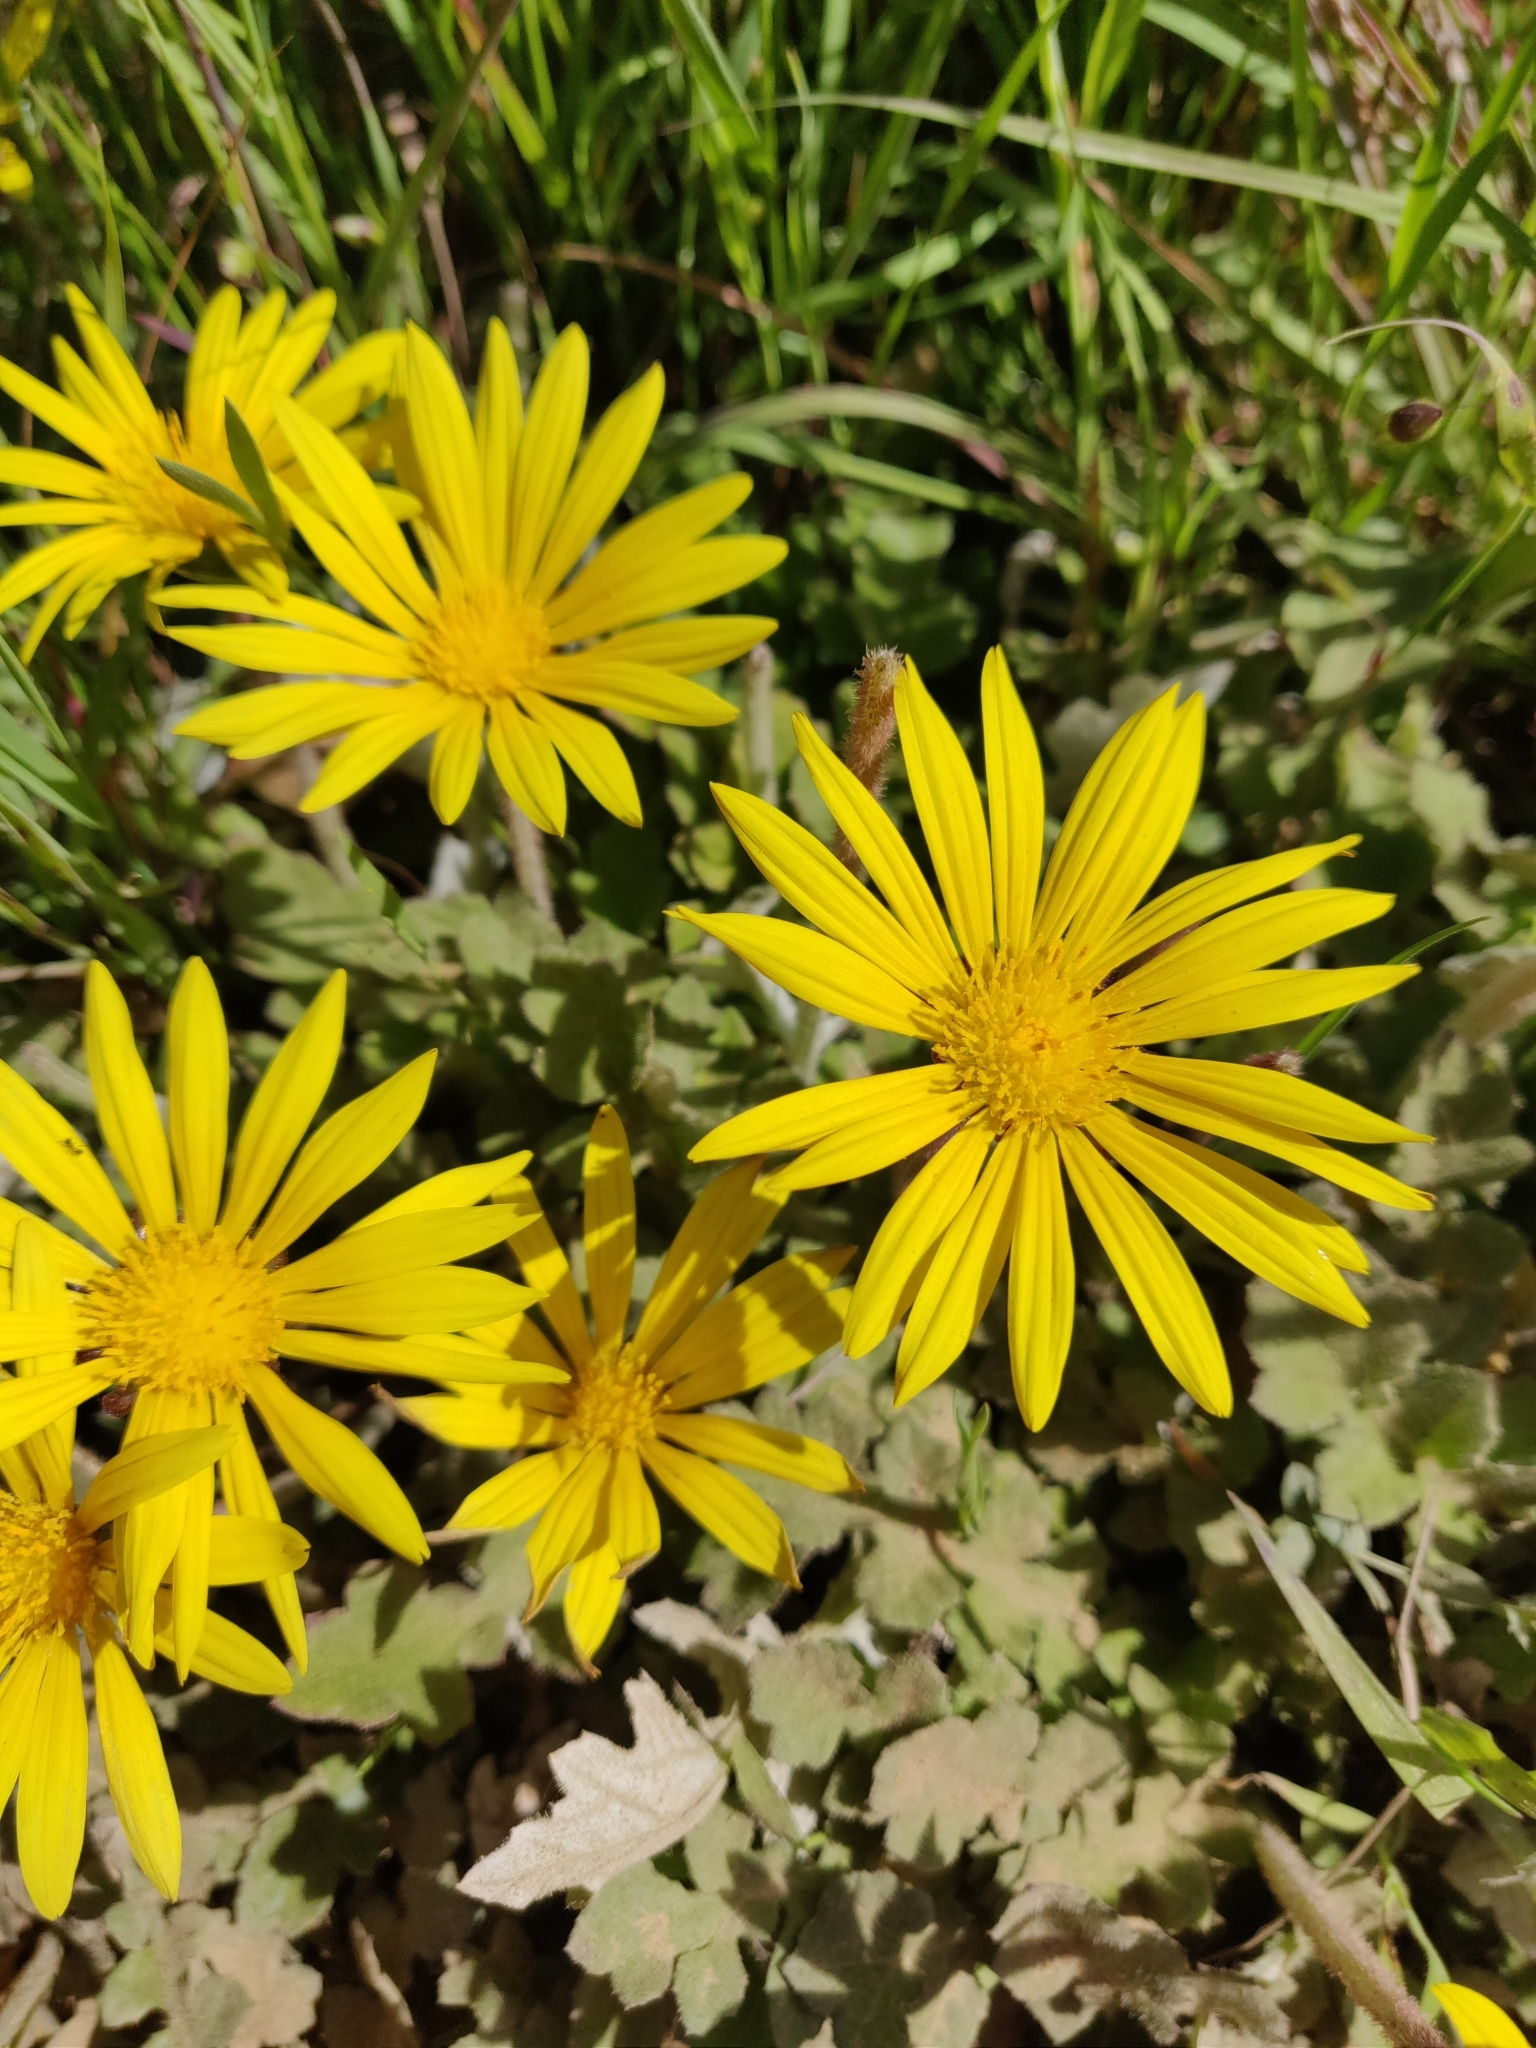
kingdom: Plantae
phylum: Tracheophyta
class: Magnoliopsida
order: Asterales
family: Asteraceae
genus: Arctotheca
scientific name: Arctotheca prostrata
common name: Capeweed
